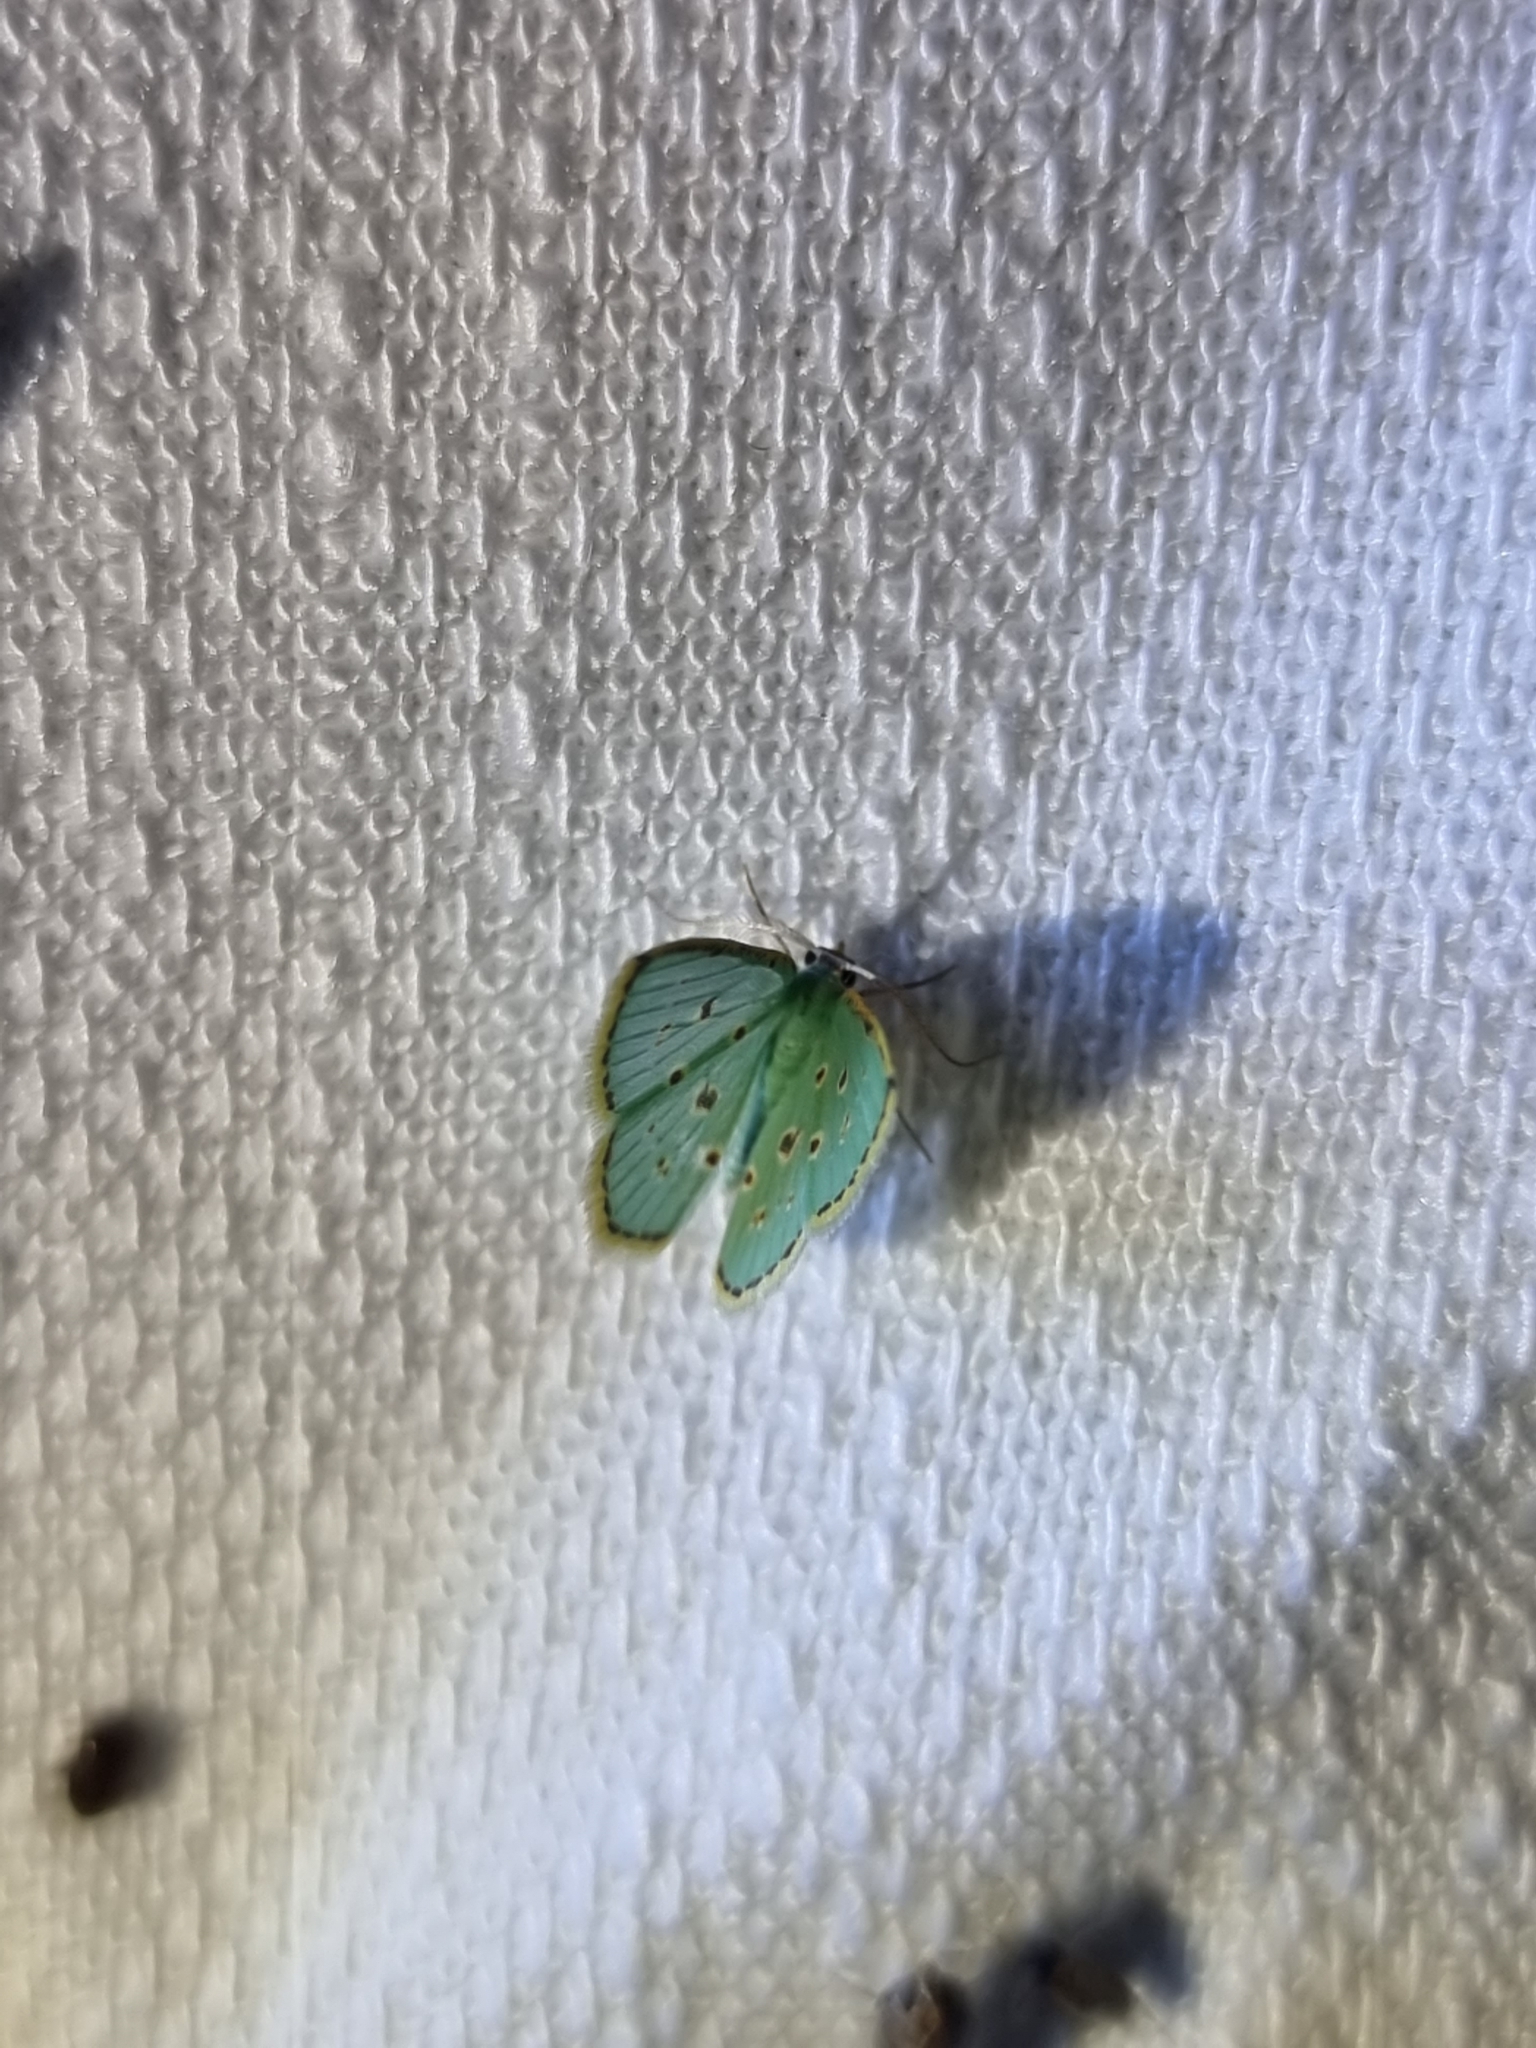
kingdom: Animalia
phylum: Arthropoda
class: Insecta
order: Lepidoptera
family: Geometridae
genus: Comostola
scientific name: Comostola laesaria
